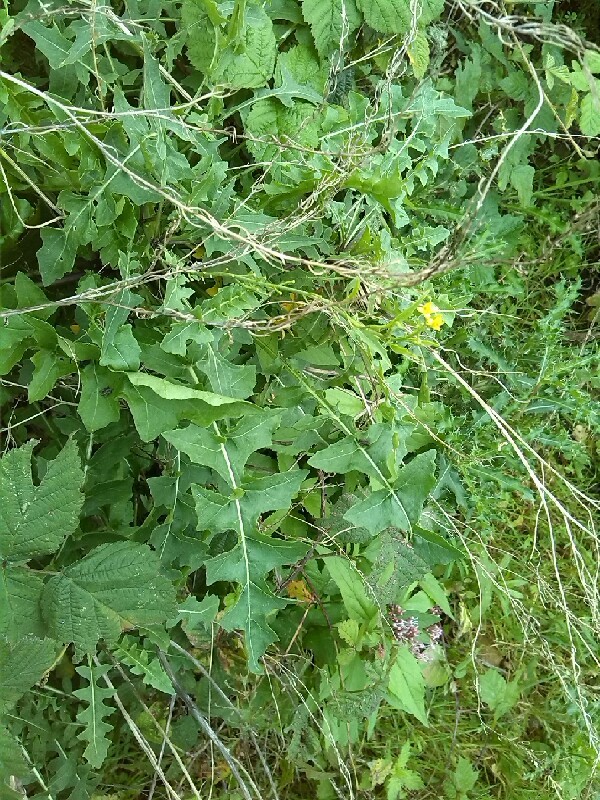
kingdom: Plantae
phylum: Tracheophyta
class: Magnoliopsida
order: Brassicales
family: Brassicaceae
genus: Sisymbrium
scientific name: Sisymbrium chrysanthum
